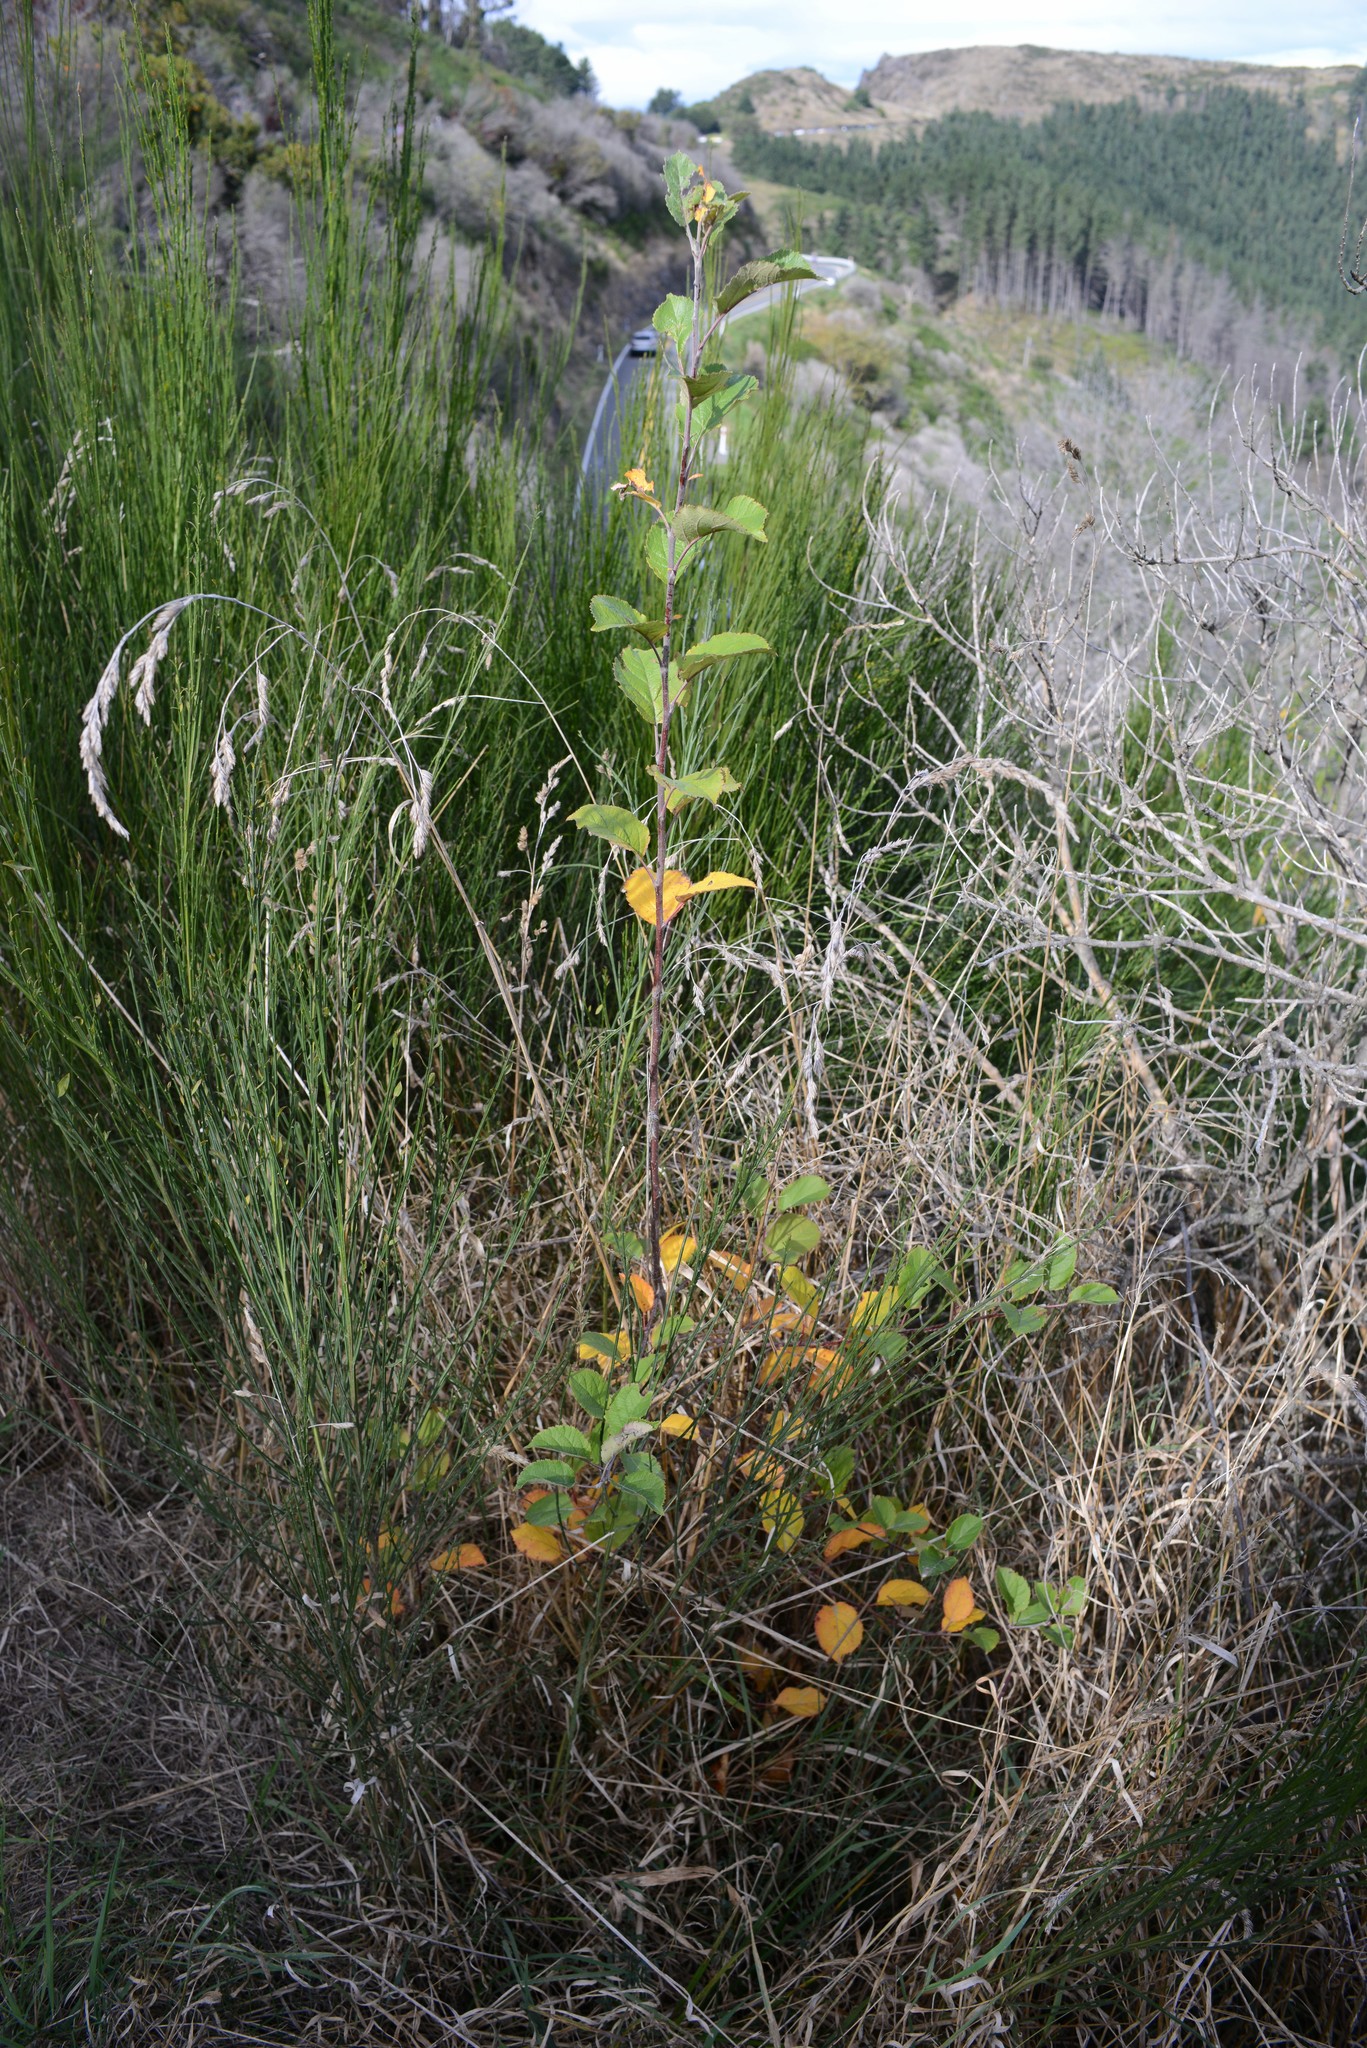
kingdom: Plantae
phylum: Tracheophyta
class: Magnoliopsida
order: Rosales
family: Rosaceae
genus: Malus
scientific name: Malus domestica
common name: Apple
